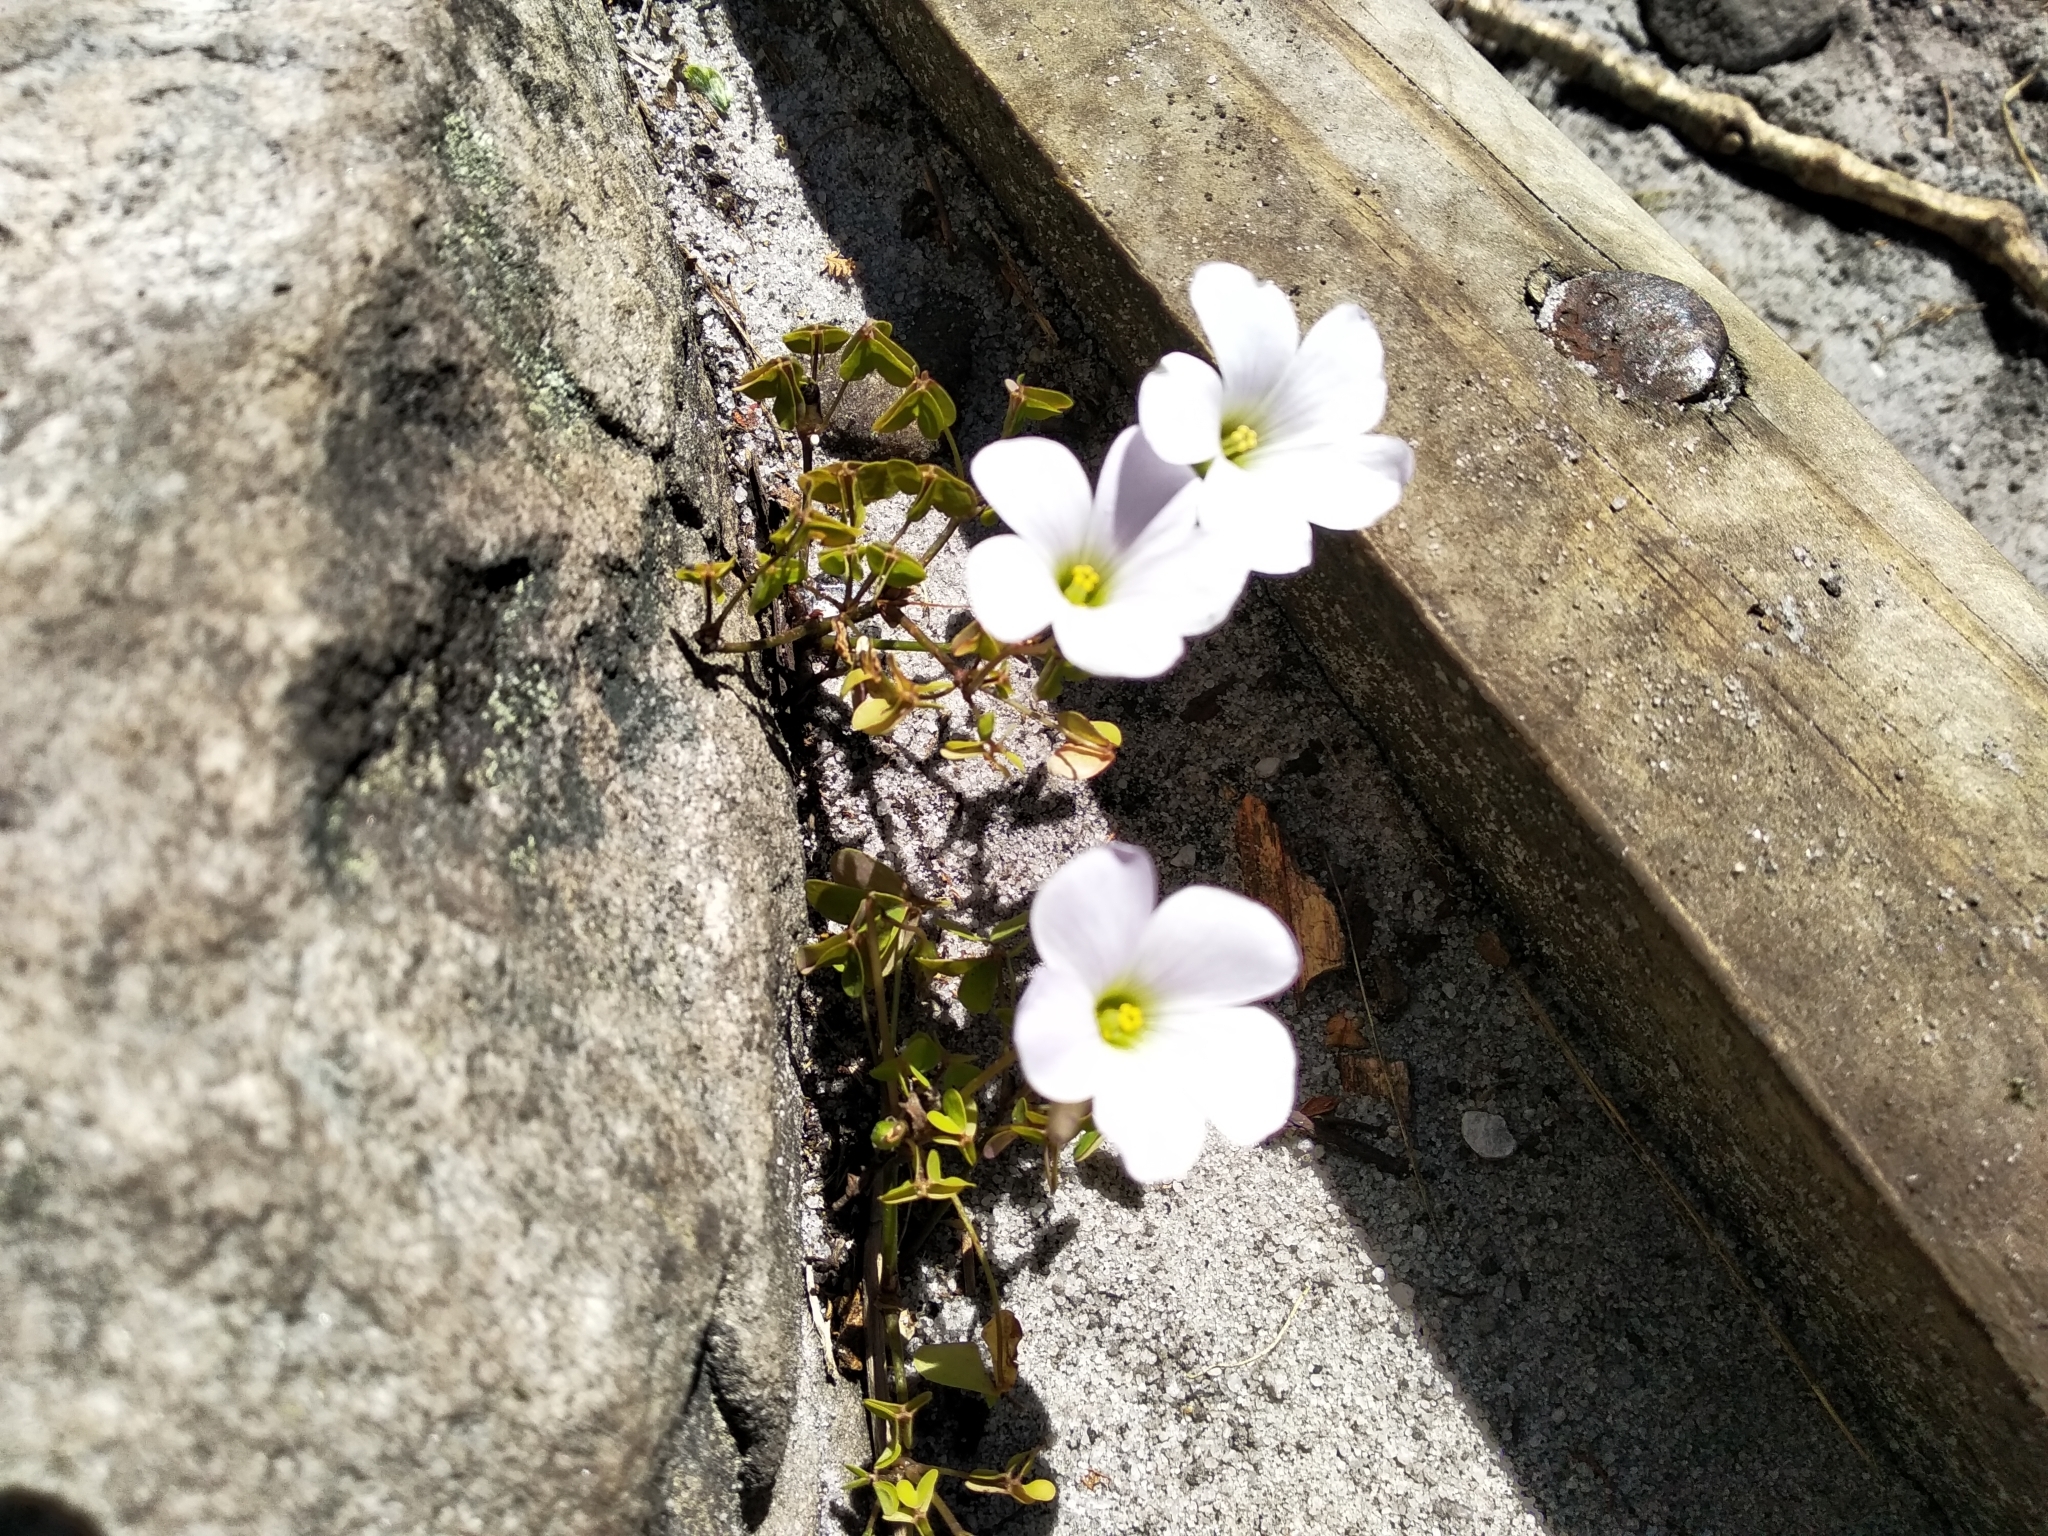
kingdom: Plantae
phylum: Tracheophyta
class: Magnoliopsida
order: Oxalidales
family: Oxalidaceae
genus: Oxalis
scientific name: Oxalis incarnata
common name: Pale pink-sorrel
